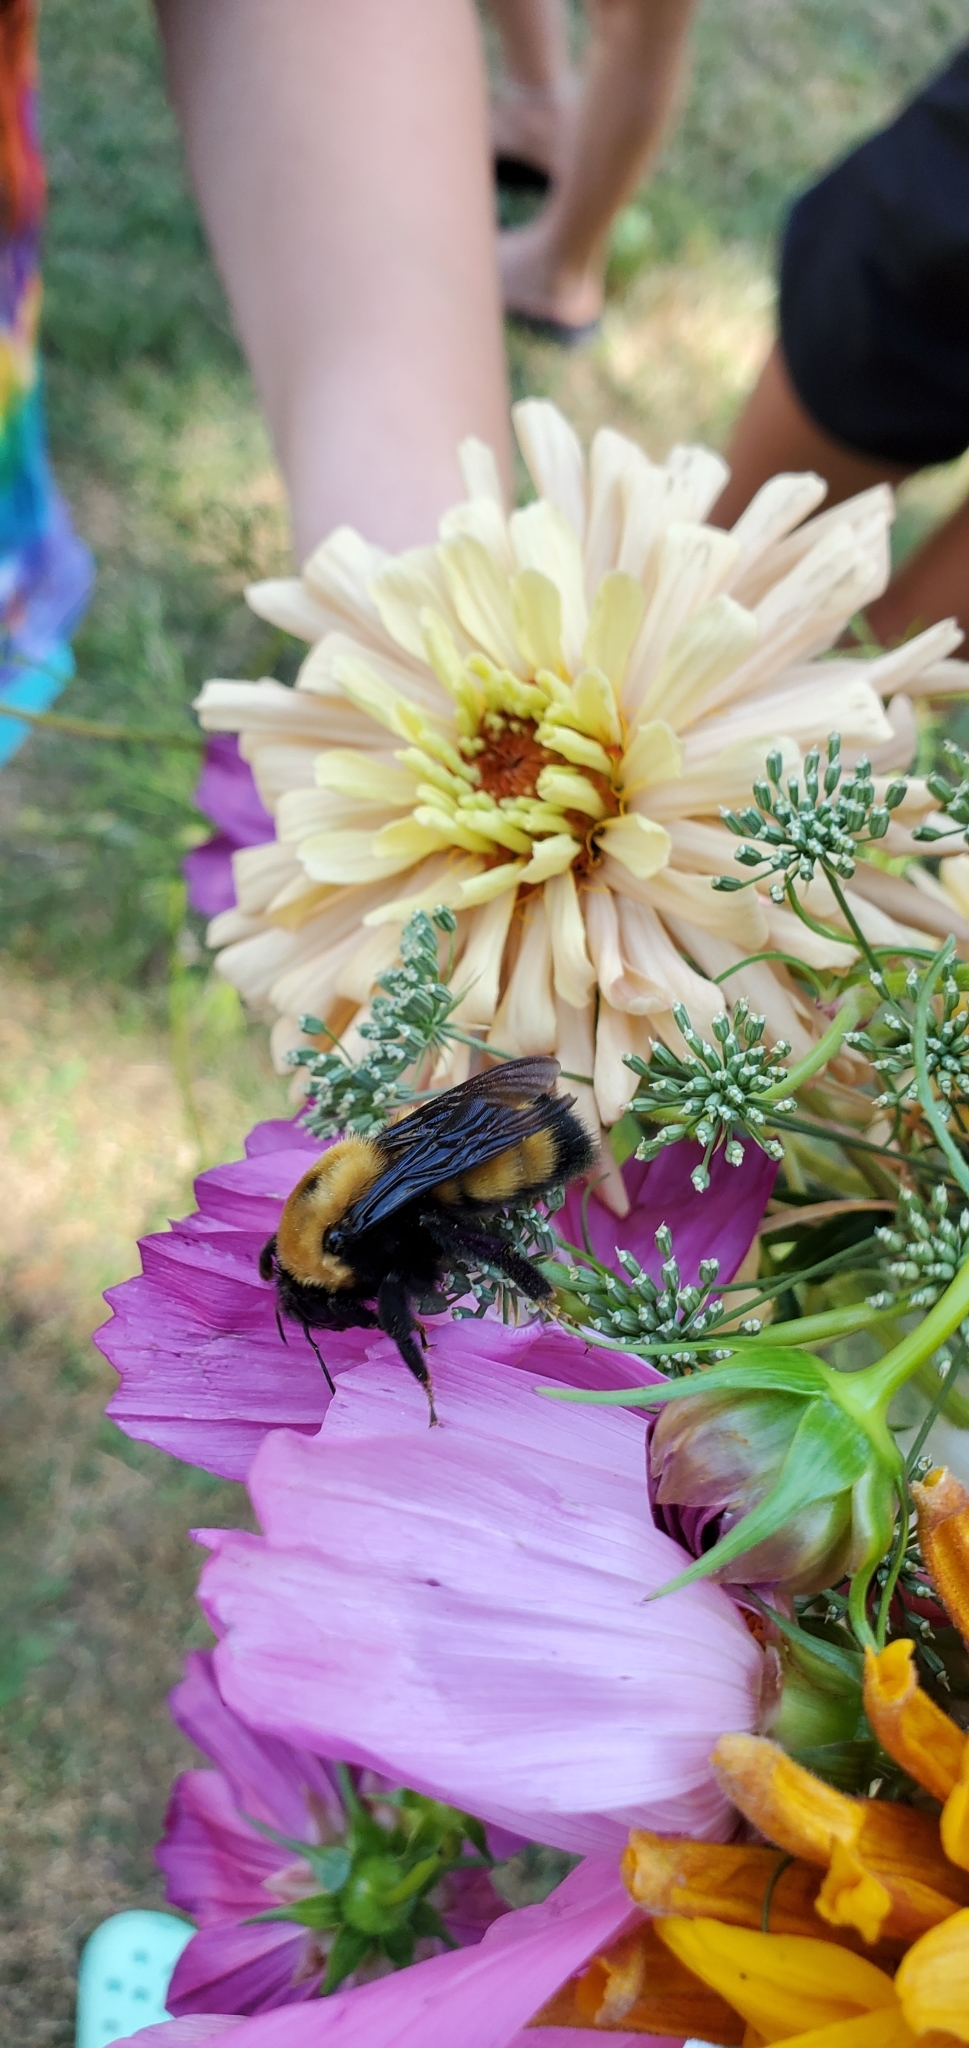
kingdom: Animalia
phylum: Arthropoda
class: Insecta
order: Hymenoptera
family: Apidae
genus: Bombus
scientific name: Bombus nevadensis
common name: Nevada bumble bee
